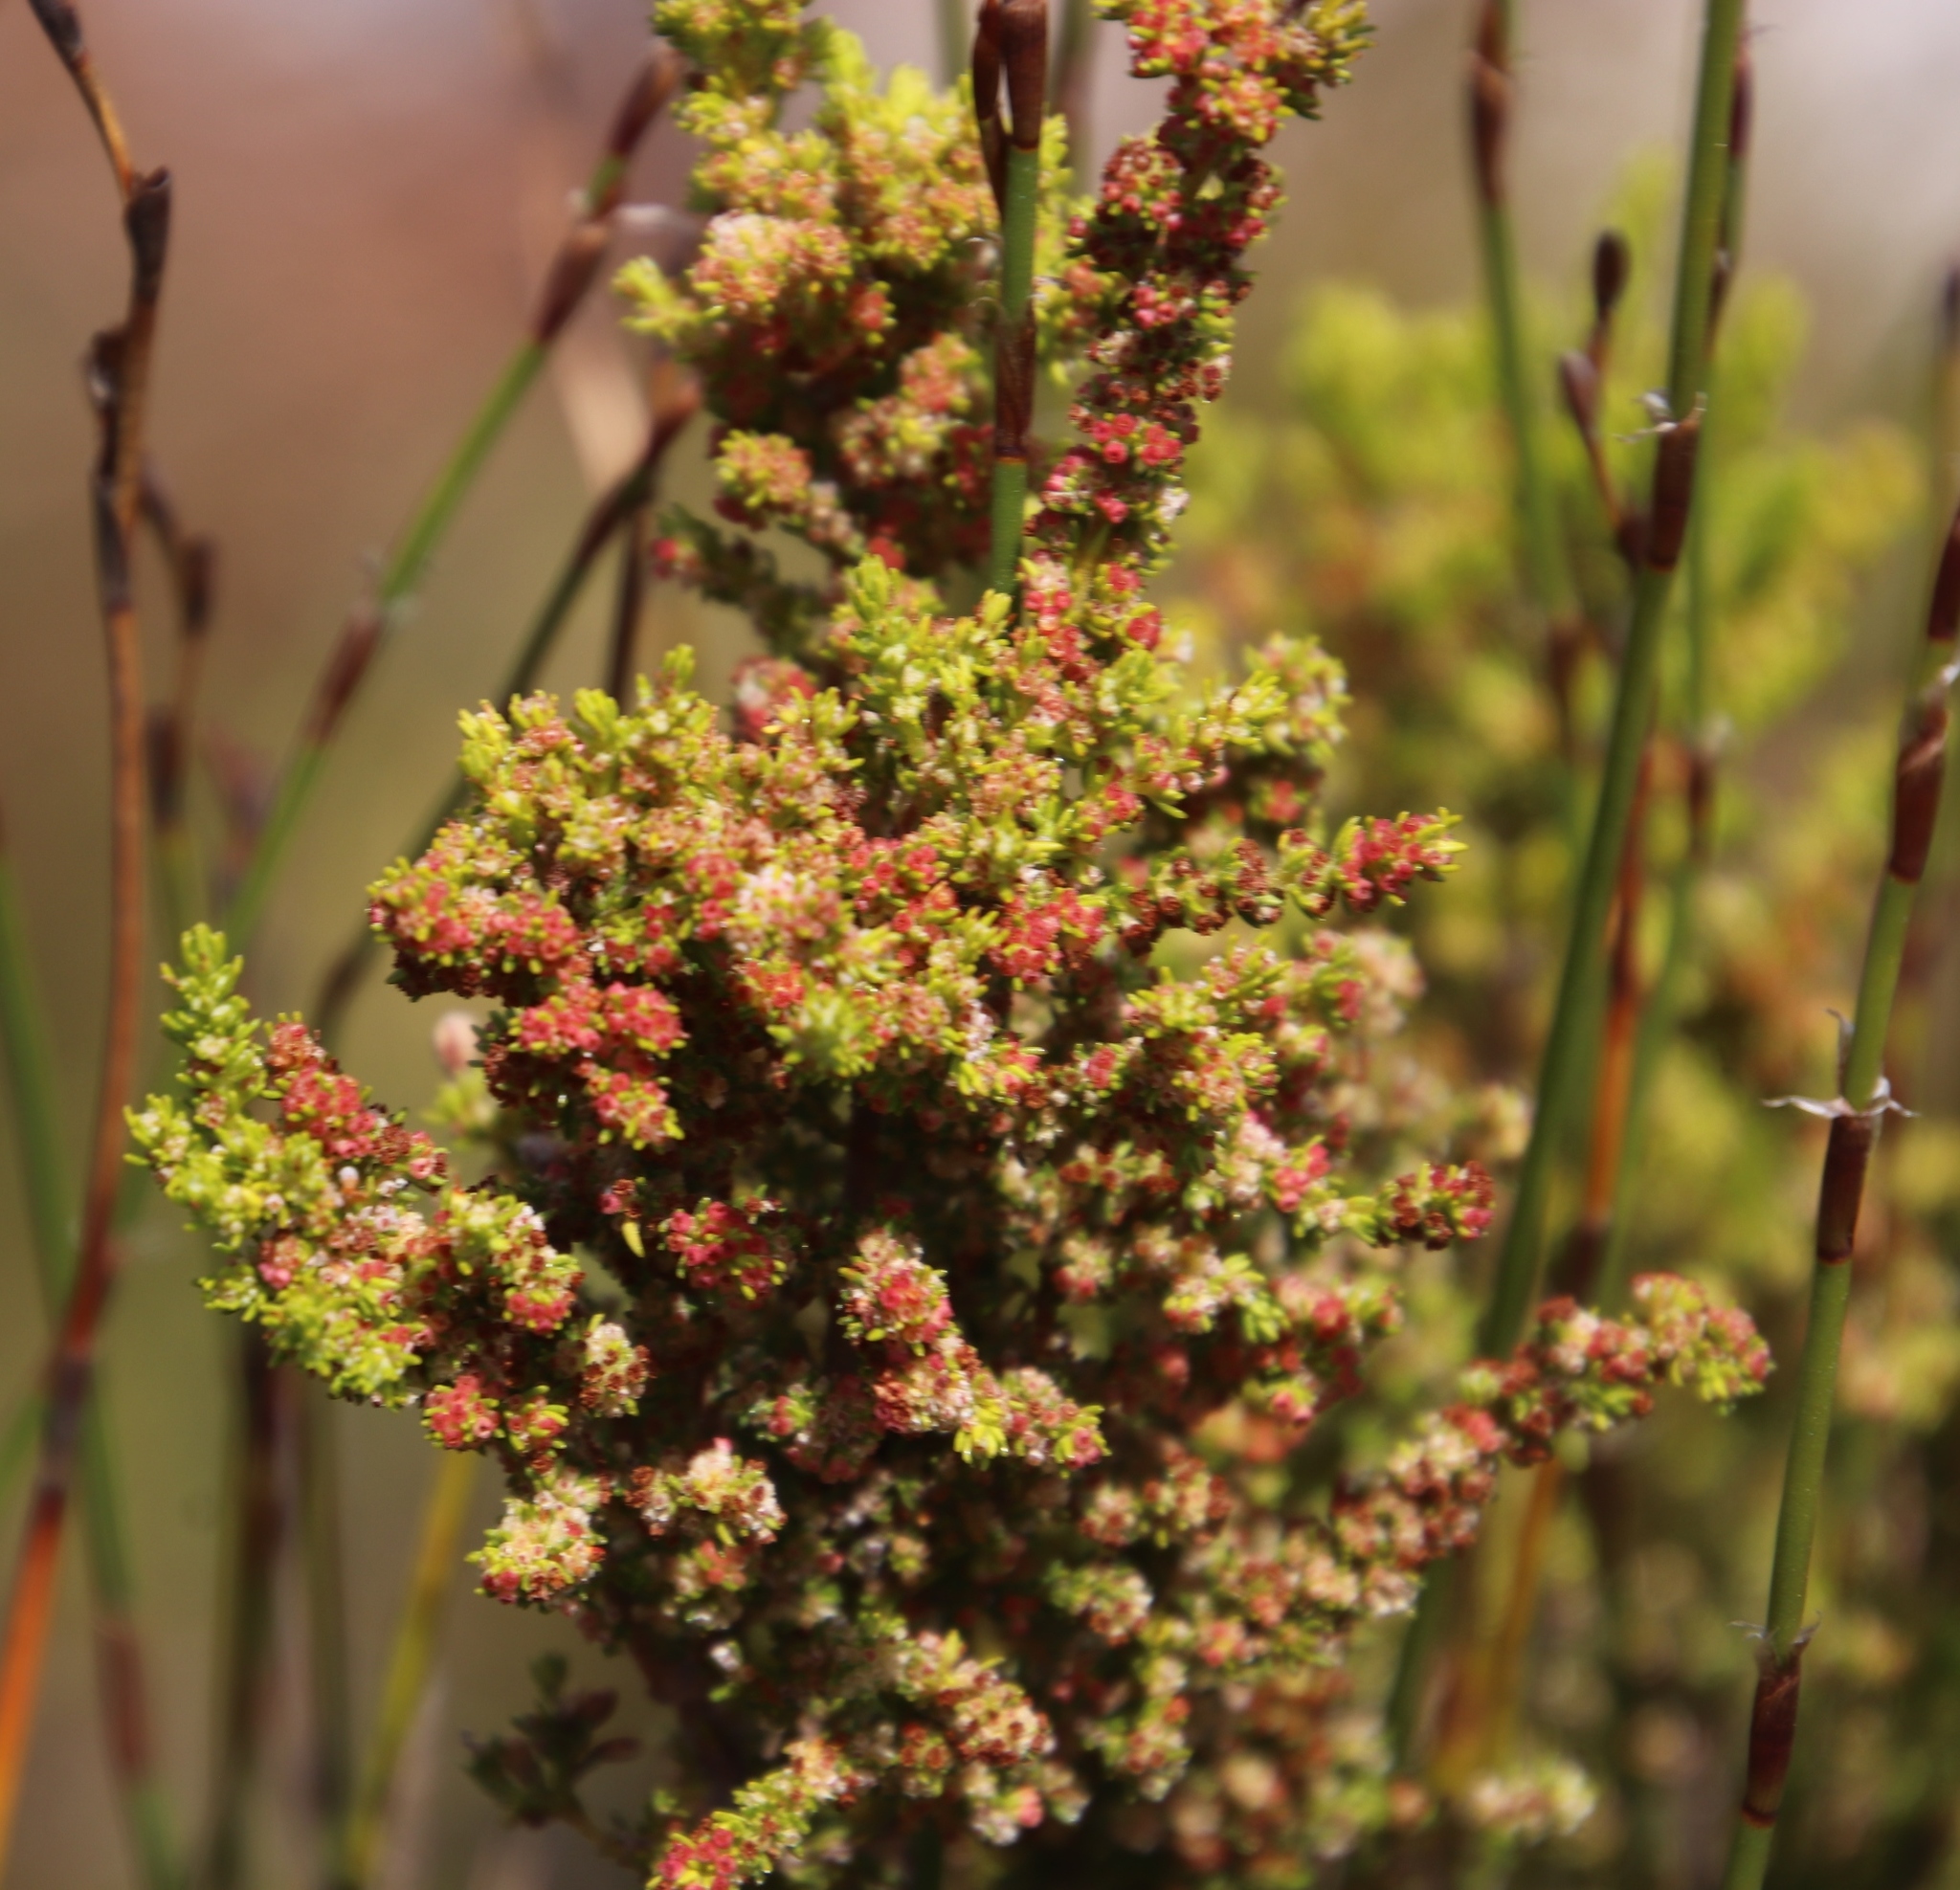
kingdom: Plantae
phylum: Tracheophyta
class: Magnoliopsida
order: Ericales
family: Ericaceae
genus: Erica
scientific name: Erica muscosa
